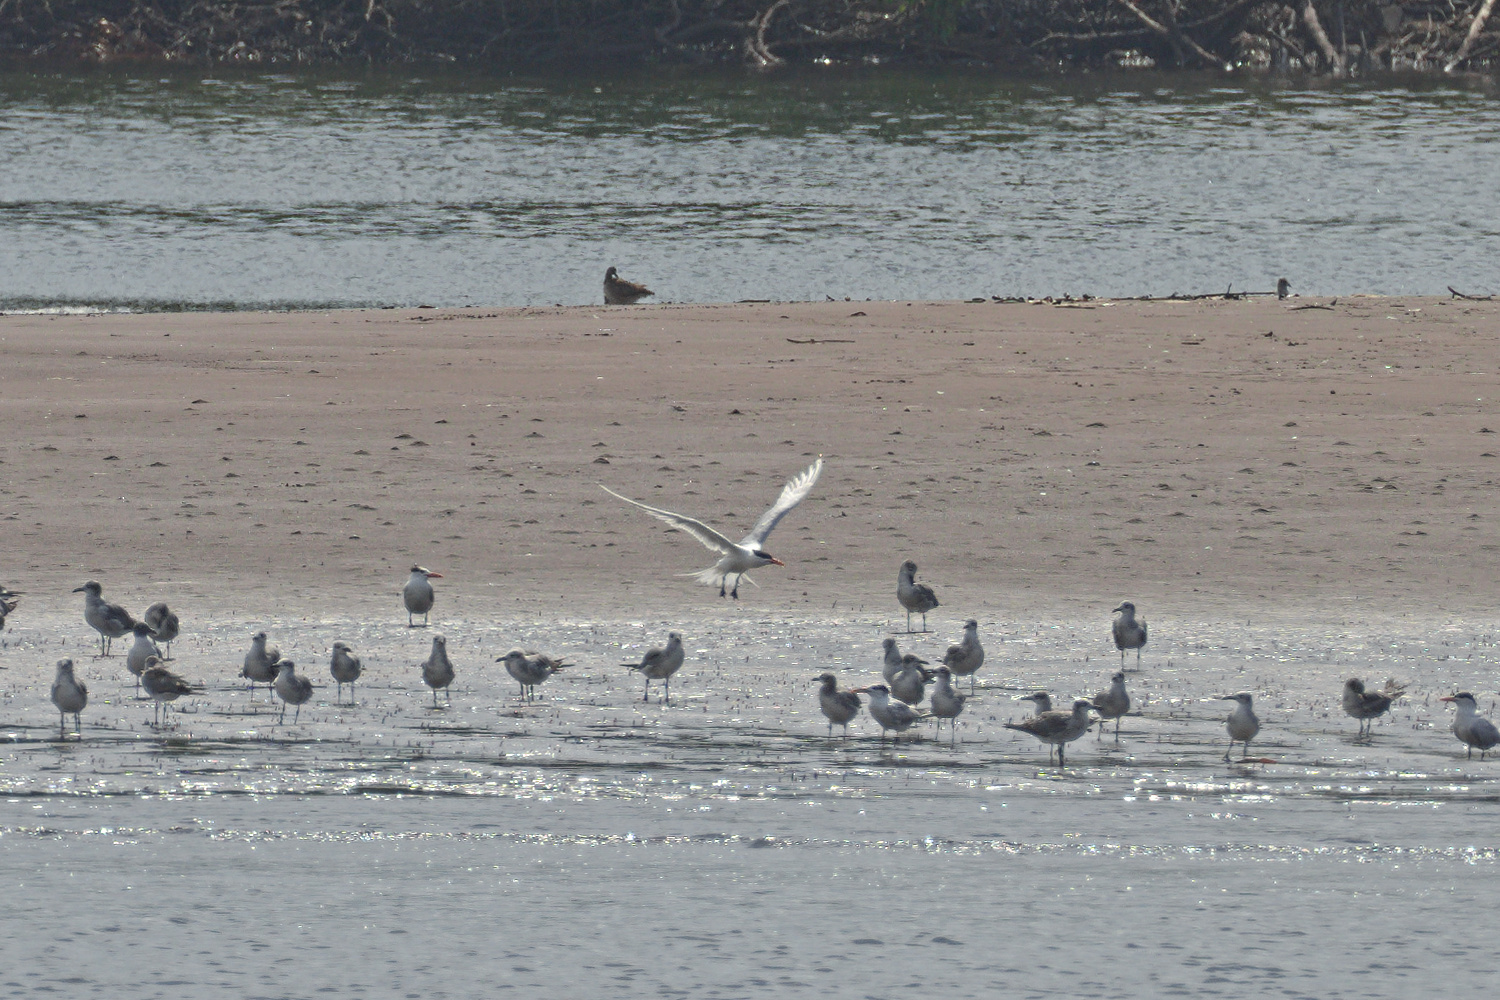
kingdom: Animalia
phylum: Chordata
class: Aves
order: Charadriiformes
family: Laridae
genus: Thalasseus
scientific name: Thalasseus maximus
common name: Royal tern
